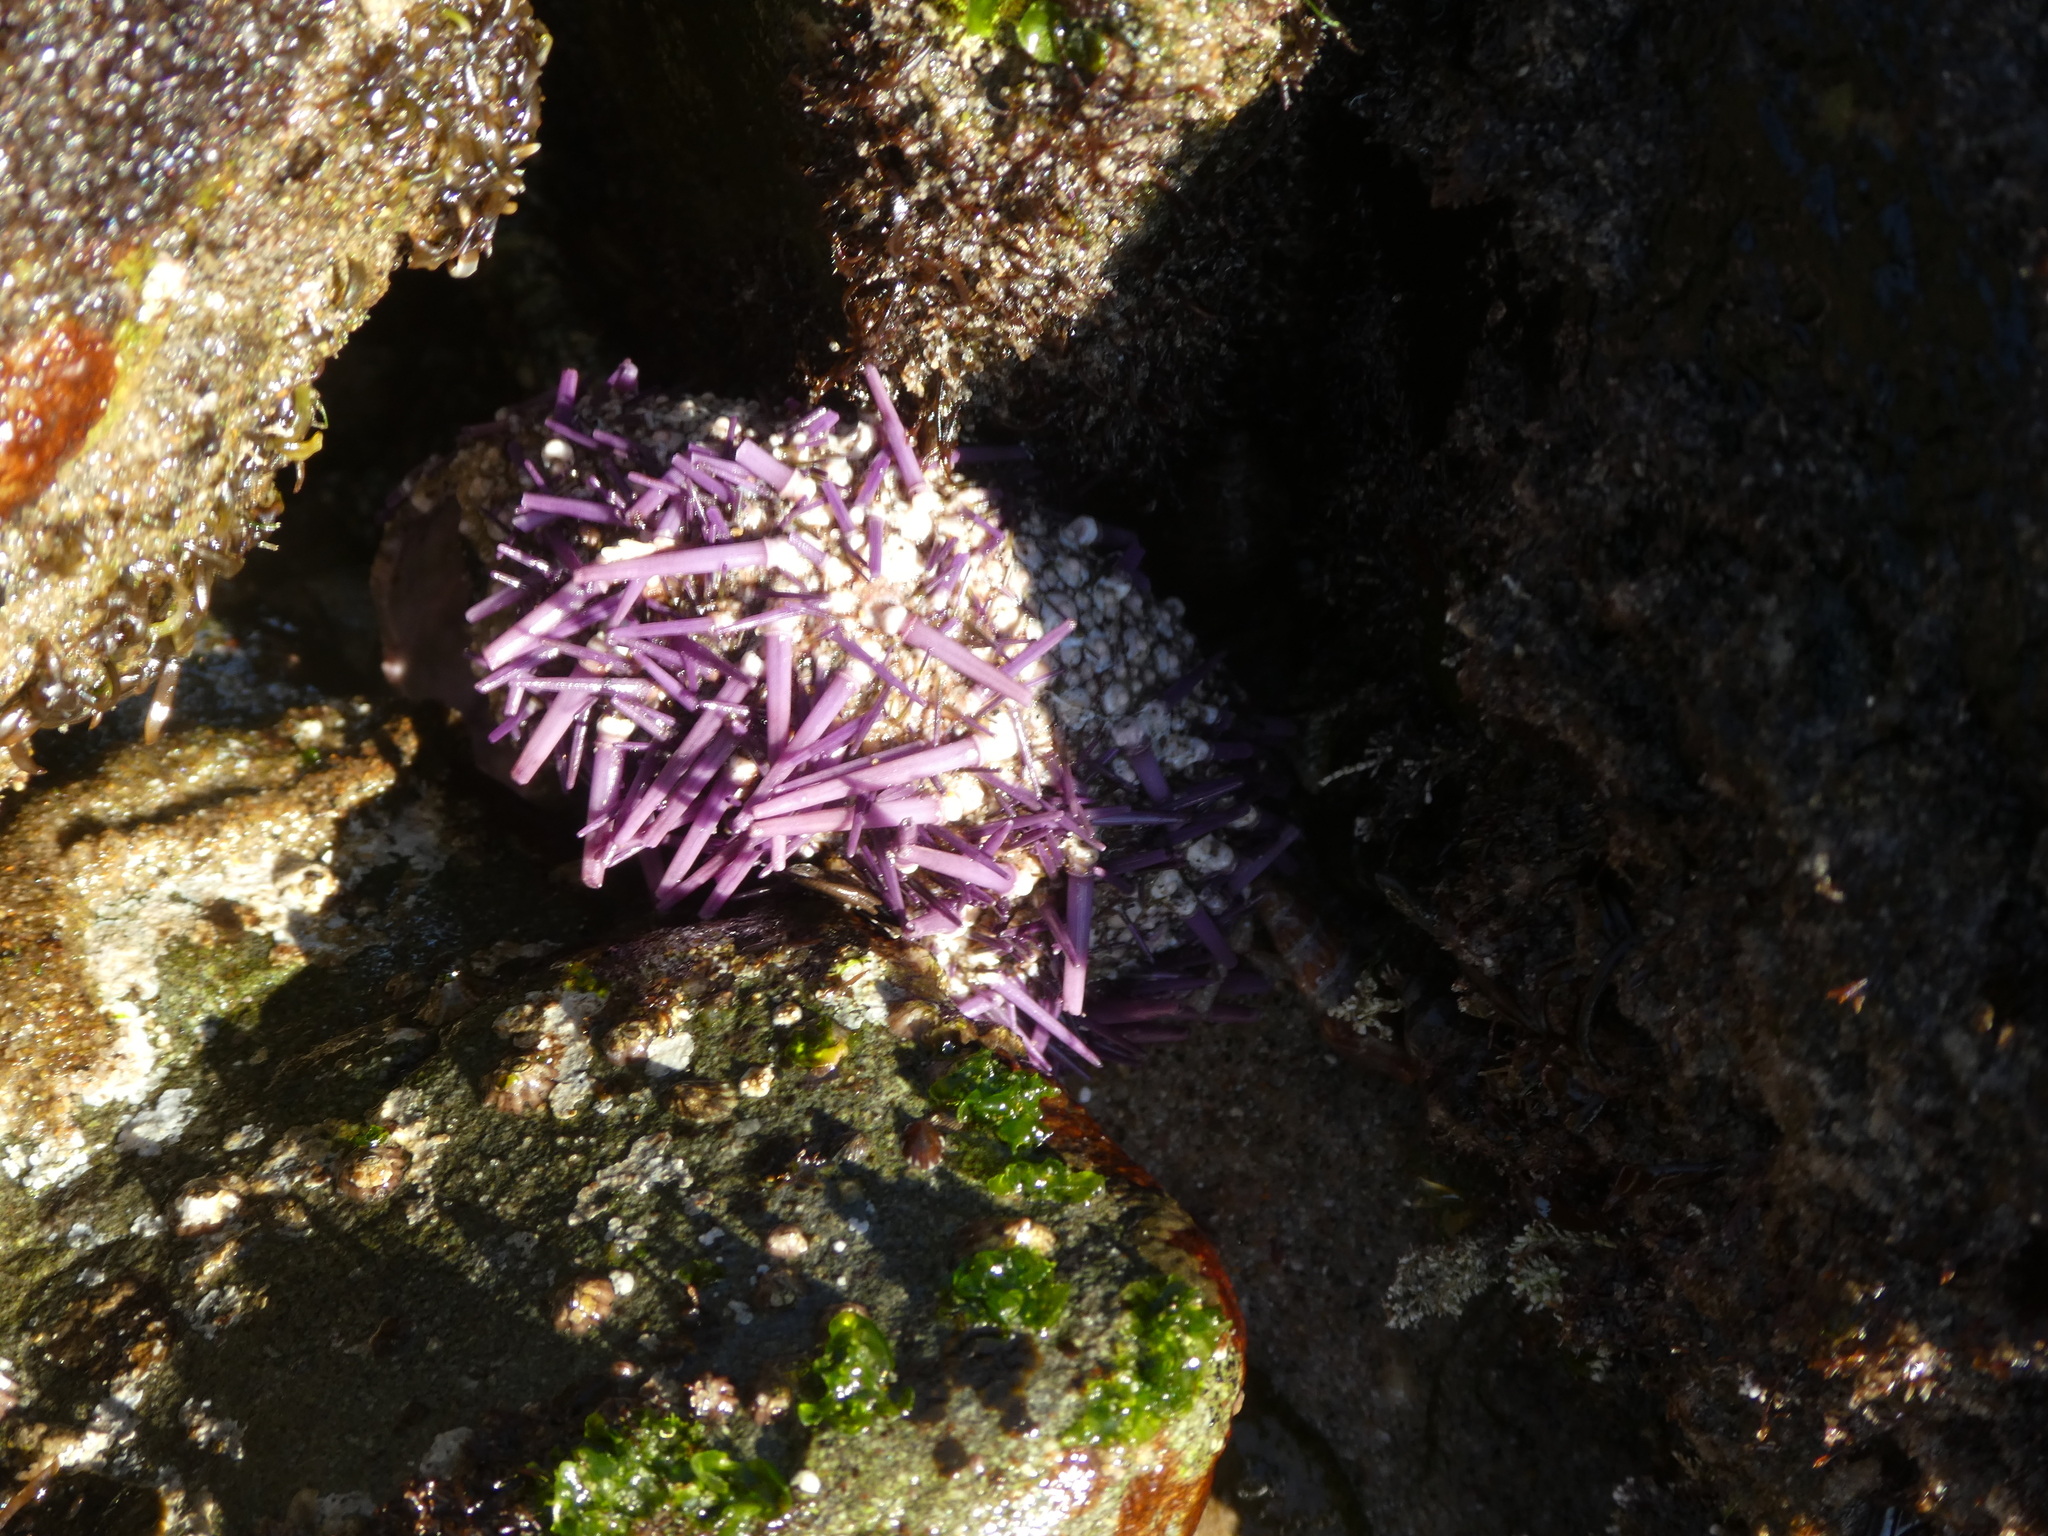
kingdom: Animalia
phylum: Echinodermata
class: Echinoidea
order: Camarodonta
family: Strongylocentrotidae
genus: Strongylocentrotus
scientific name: Strongylocentrotus purpuratus
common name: Purple sea urchin
